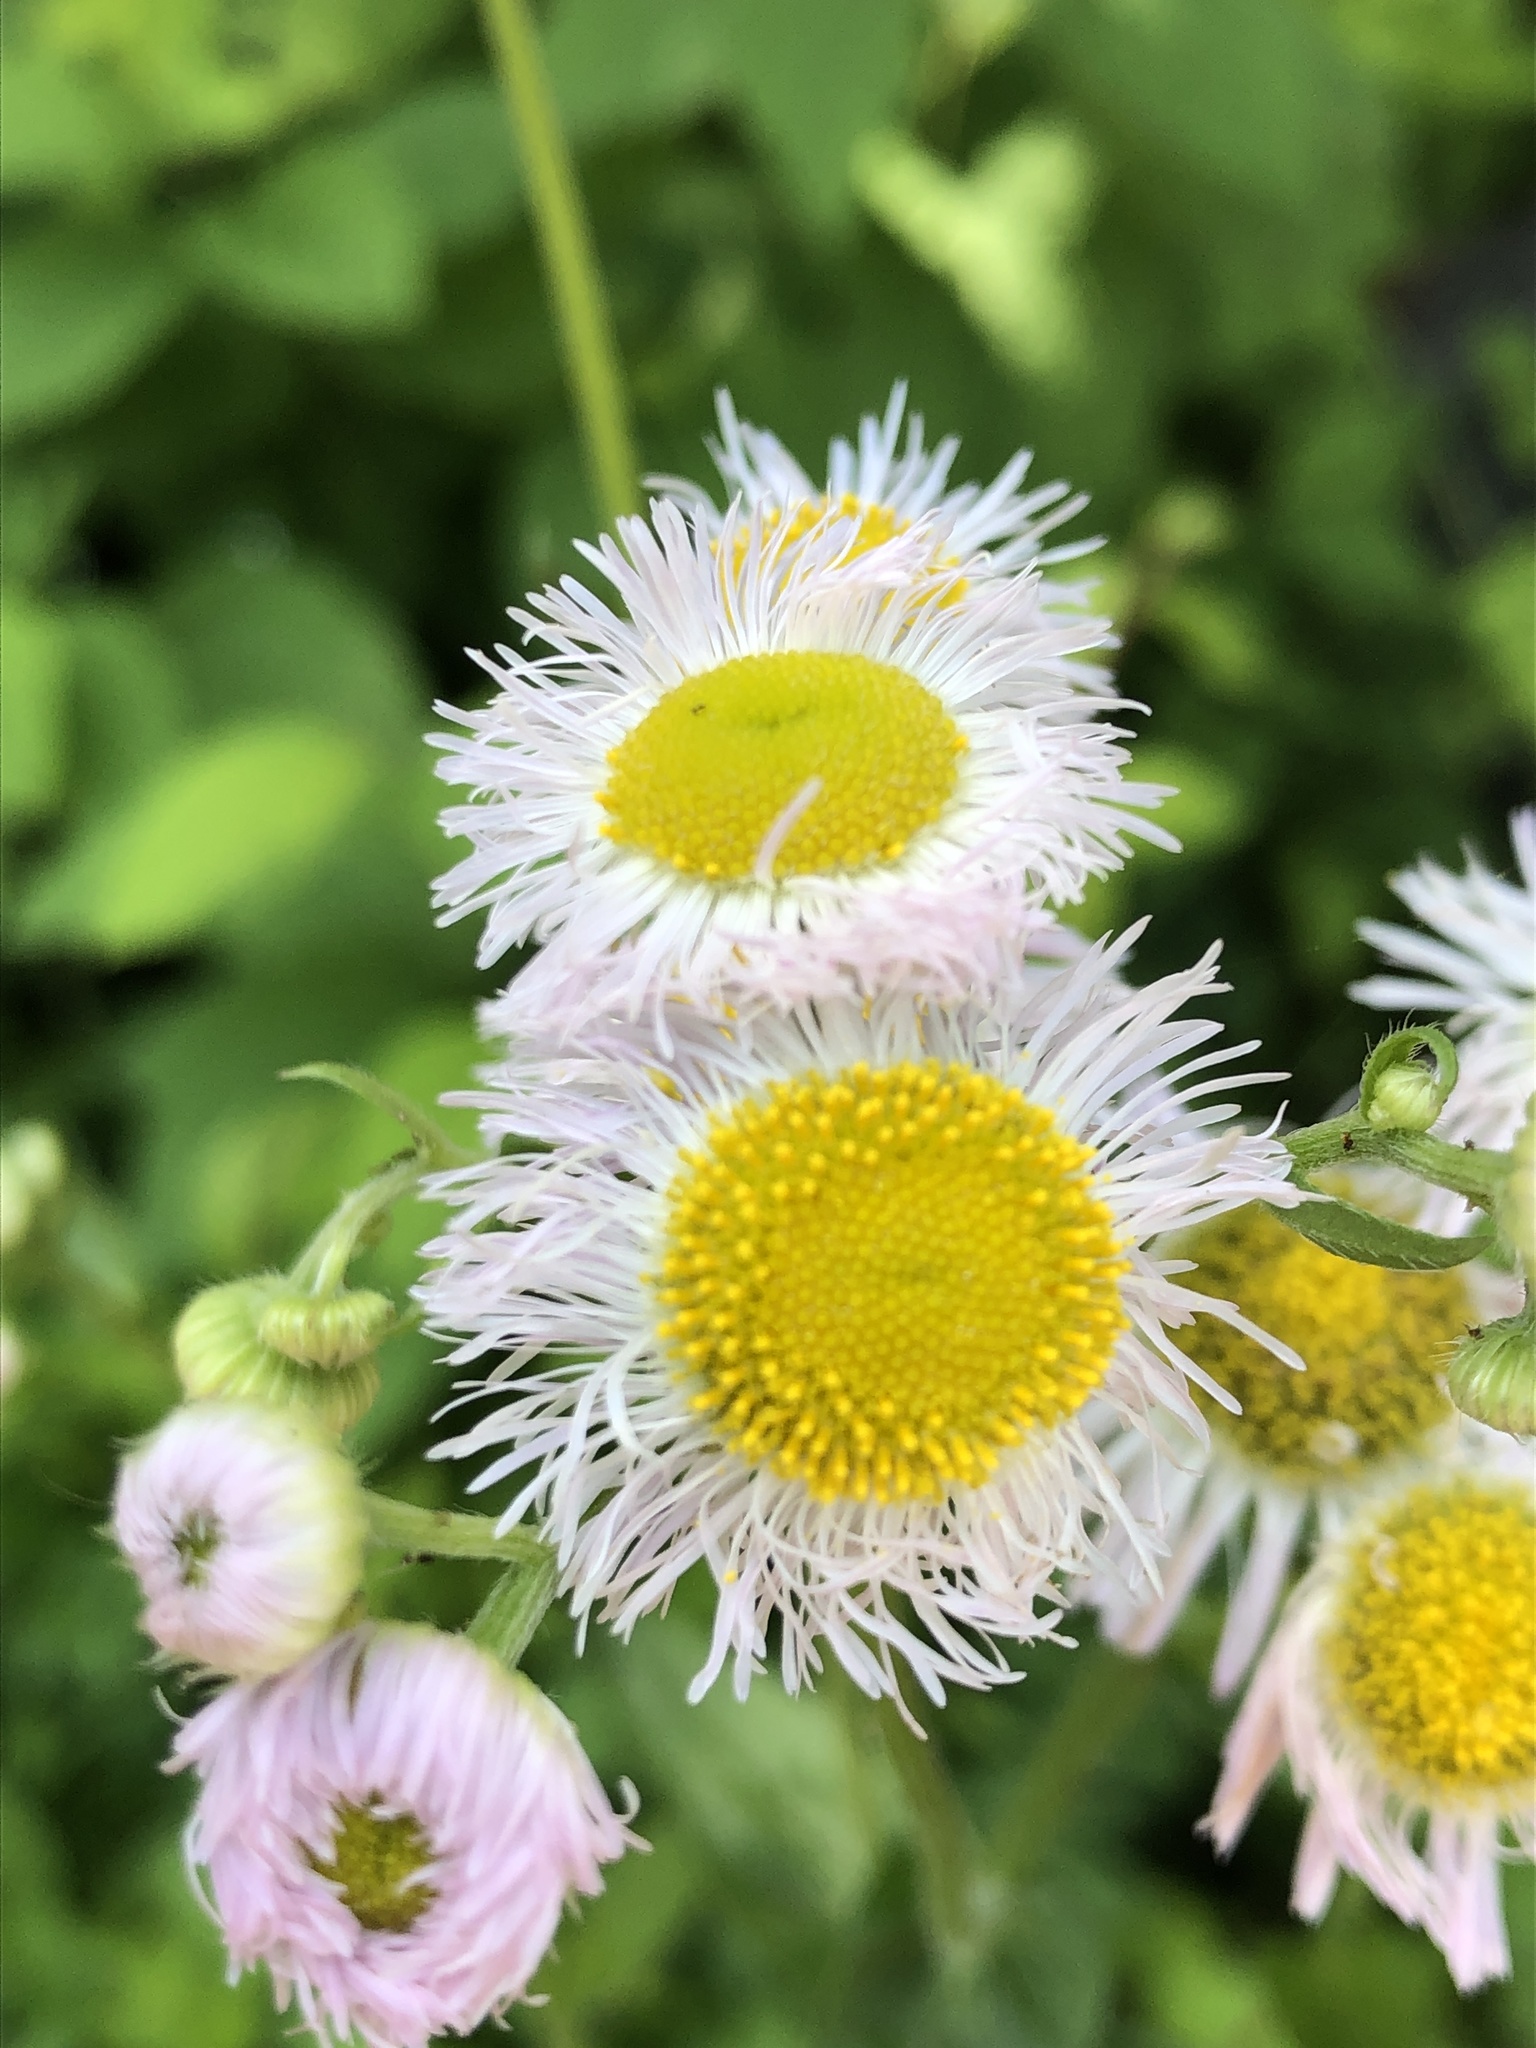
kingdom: Plantae
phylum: Tracheophyta
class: Magnoliopsida
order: Asterales
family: Asteraceae
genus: Erigeron
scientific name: Erigeron philadelphicus
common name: Robin's-plantain
